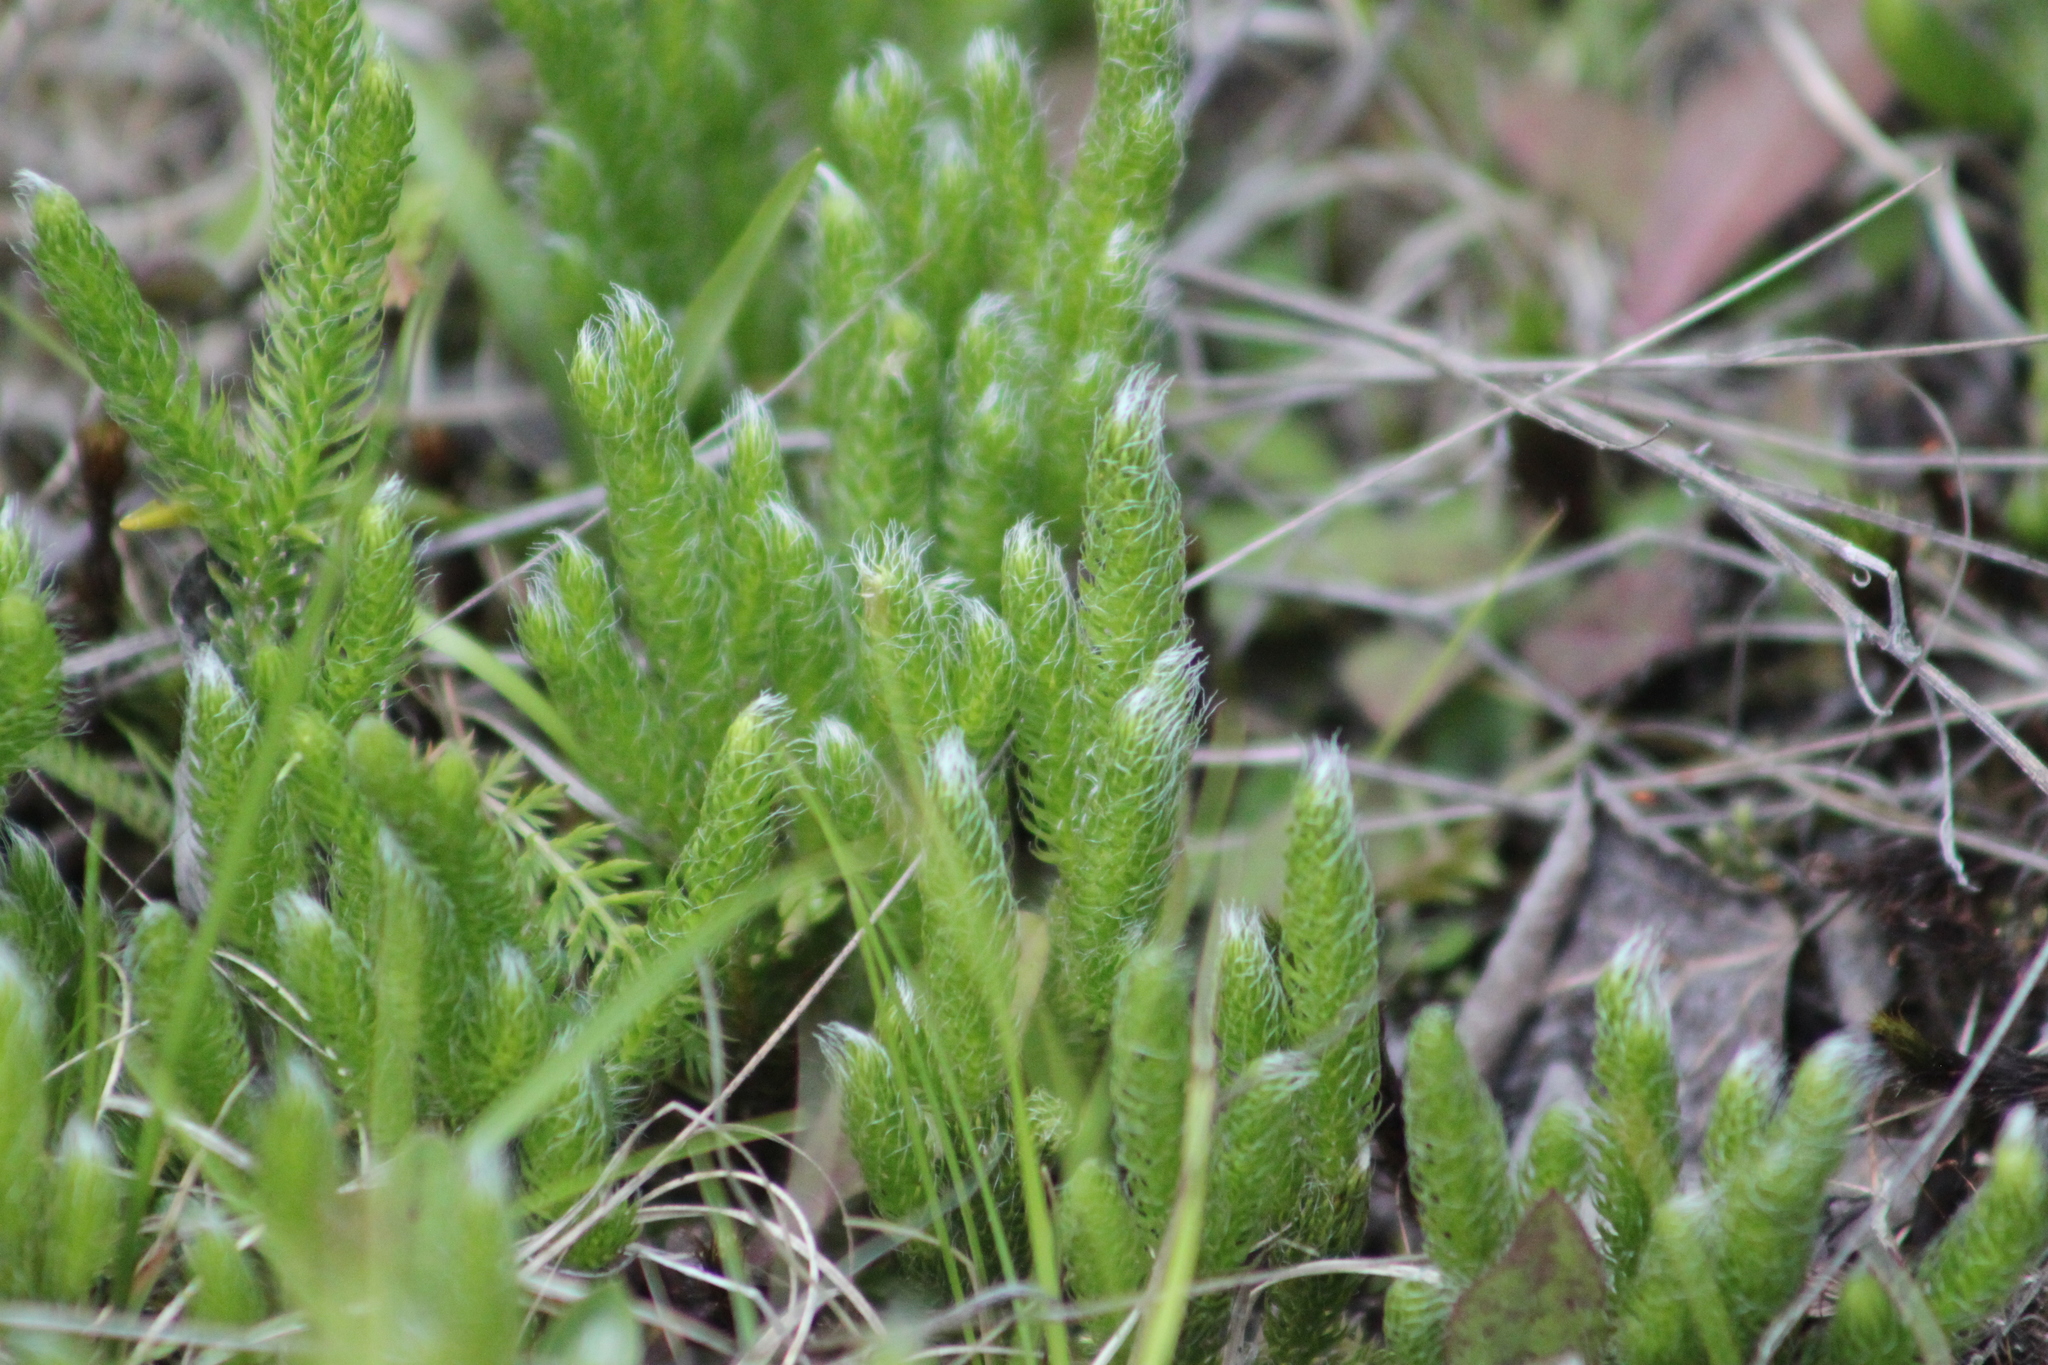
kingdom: Plantae
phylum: Tracheophyta
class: Lycopodiopsida
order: Lycopodiales
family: Lycopodiaceae
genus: Lycopodium
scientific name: Lycopodium clavatum
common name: Stag's-horn clubmoss
